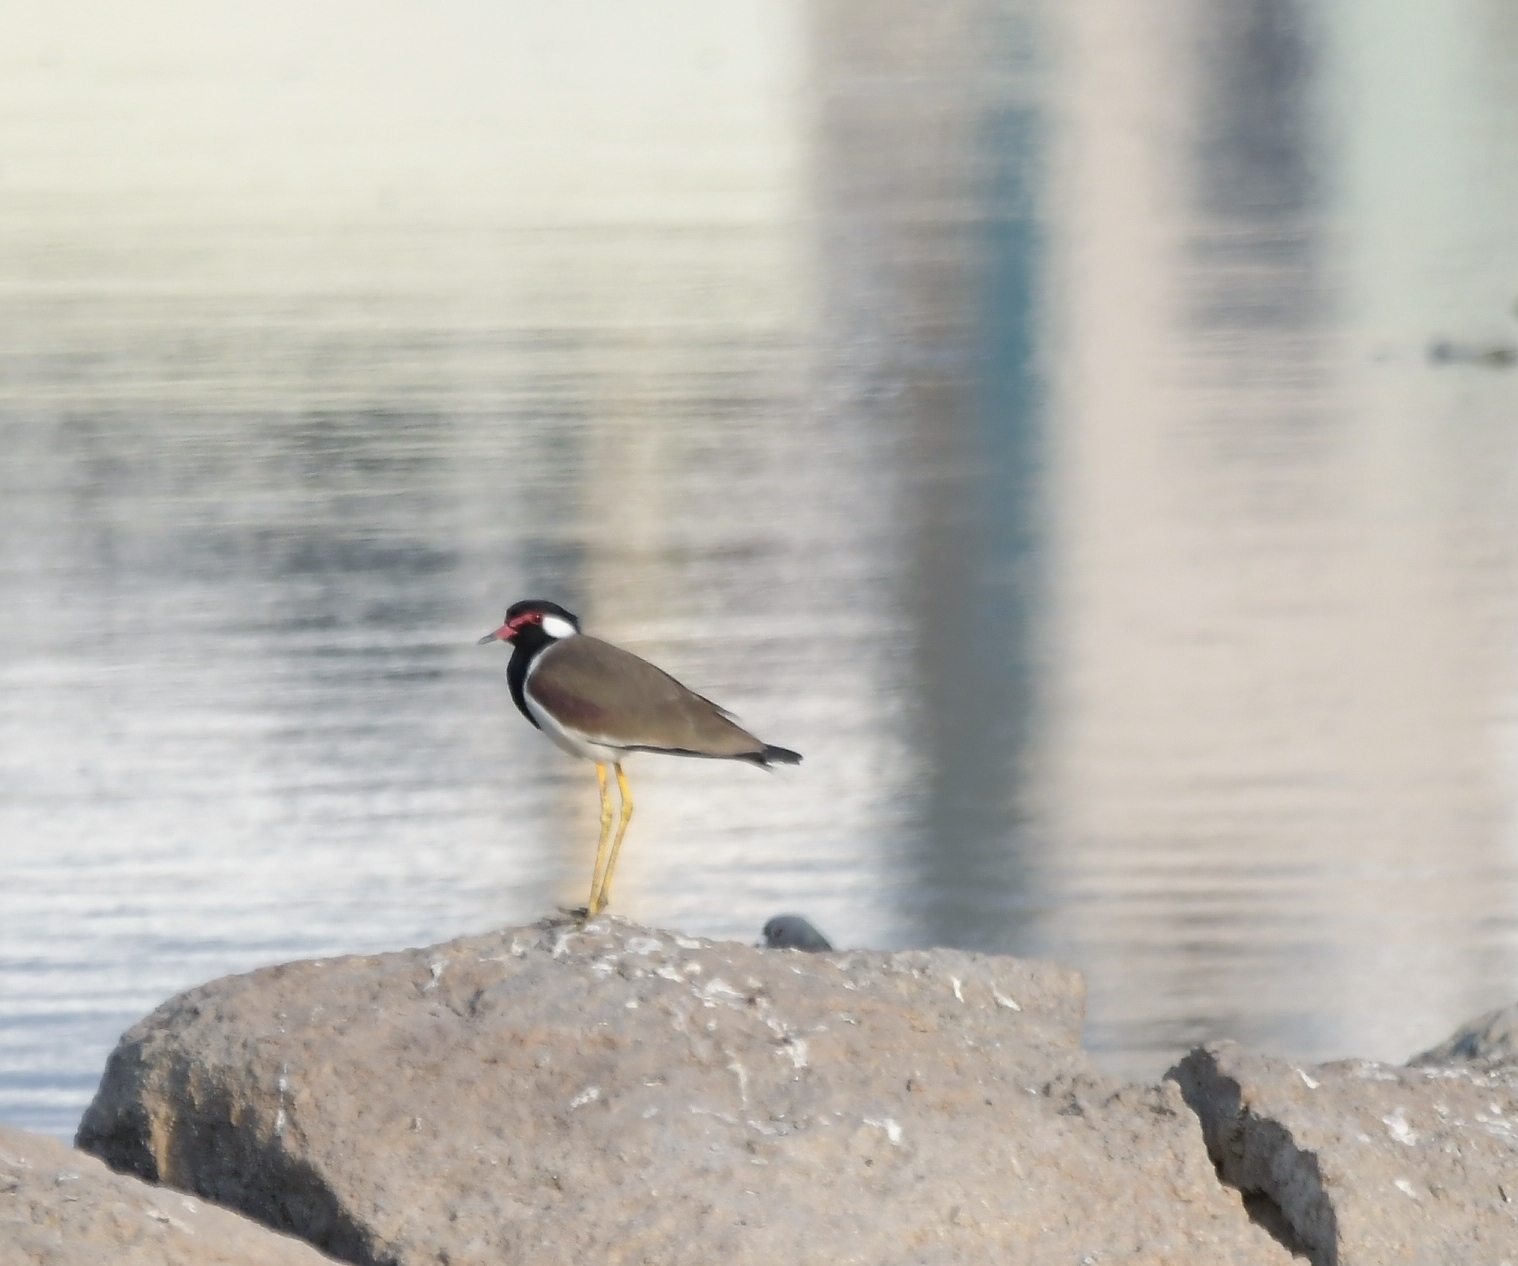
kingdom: Animalia
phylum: Chordata
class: Aves
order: Charadriiformes
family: Charadriidae
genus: Vanellus
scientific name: Vanellus indicus
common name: Red-wattled lapwing
